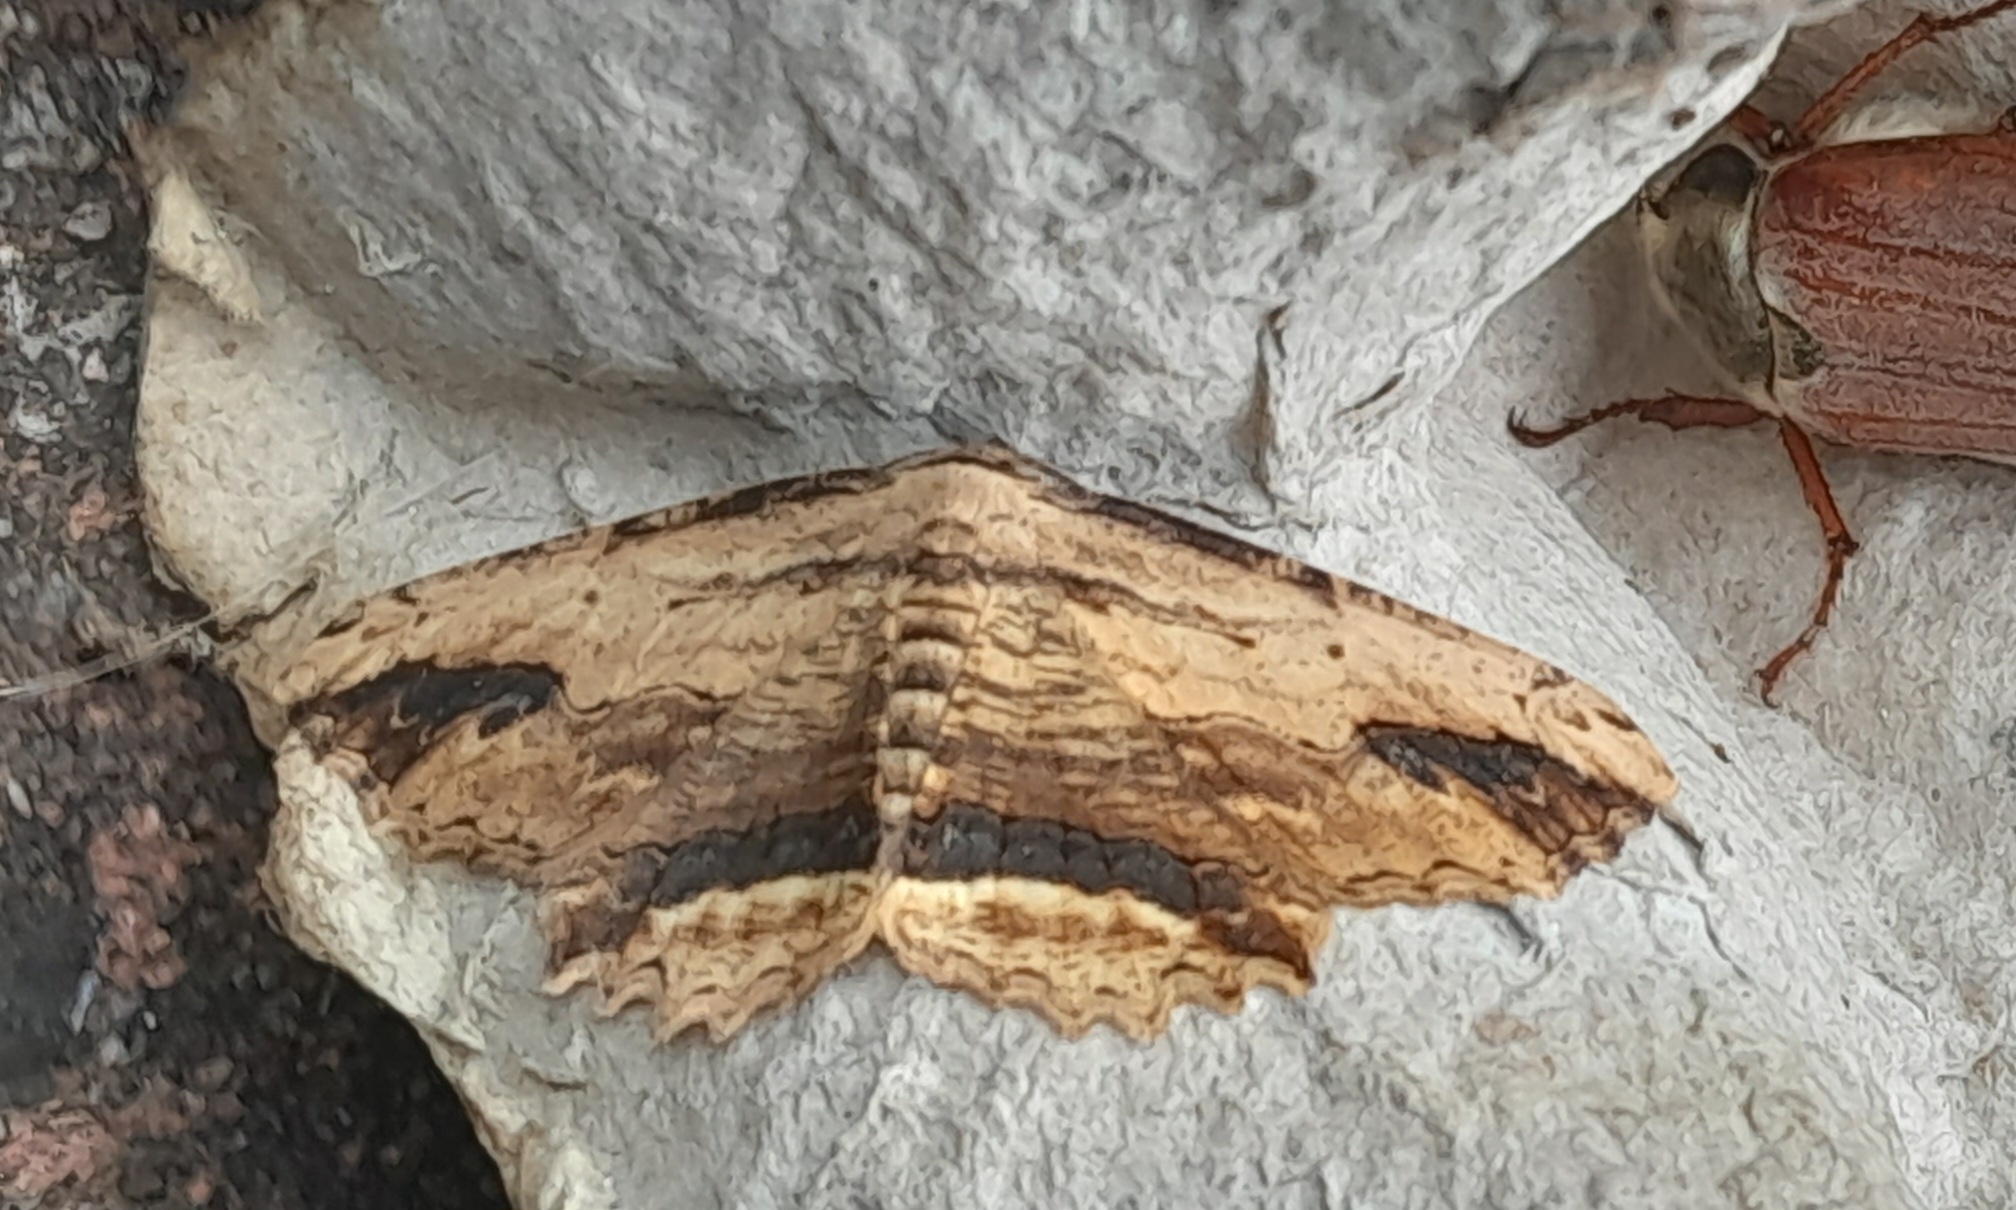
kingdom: Animalia
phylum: Arthropoda
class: Insecta
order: Lepidoptera
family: Geometridae
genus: Menophra
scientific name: Menophra abruptaria
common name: Waved umber
